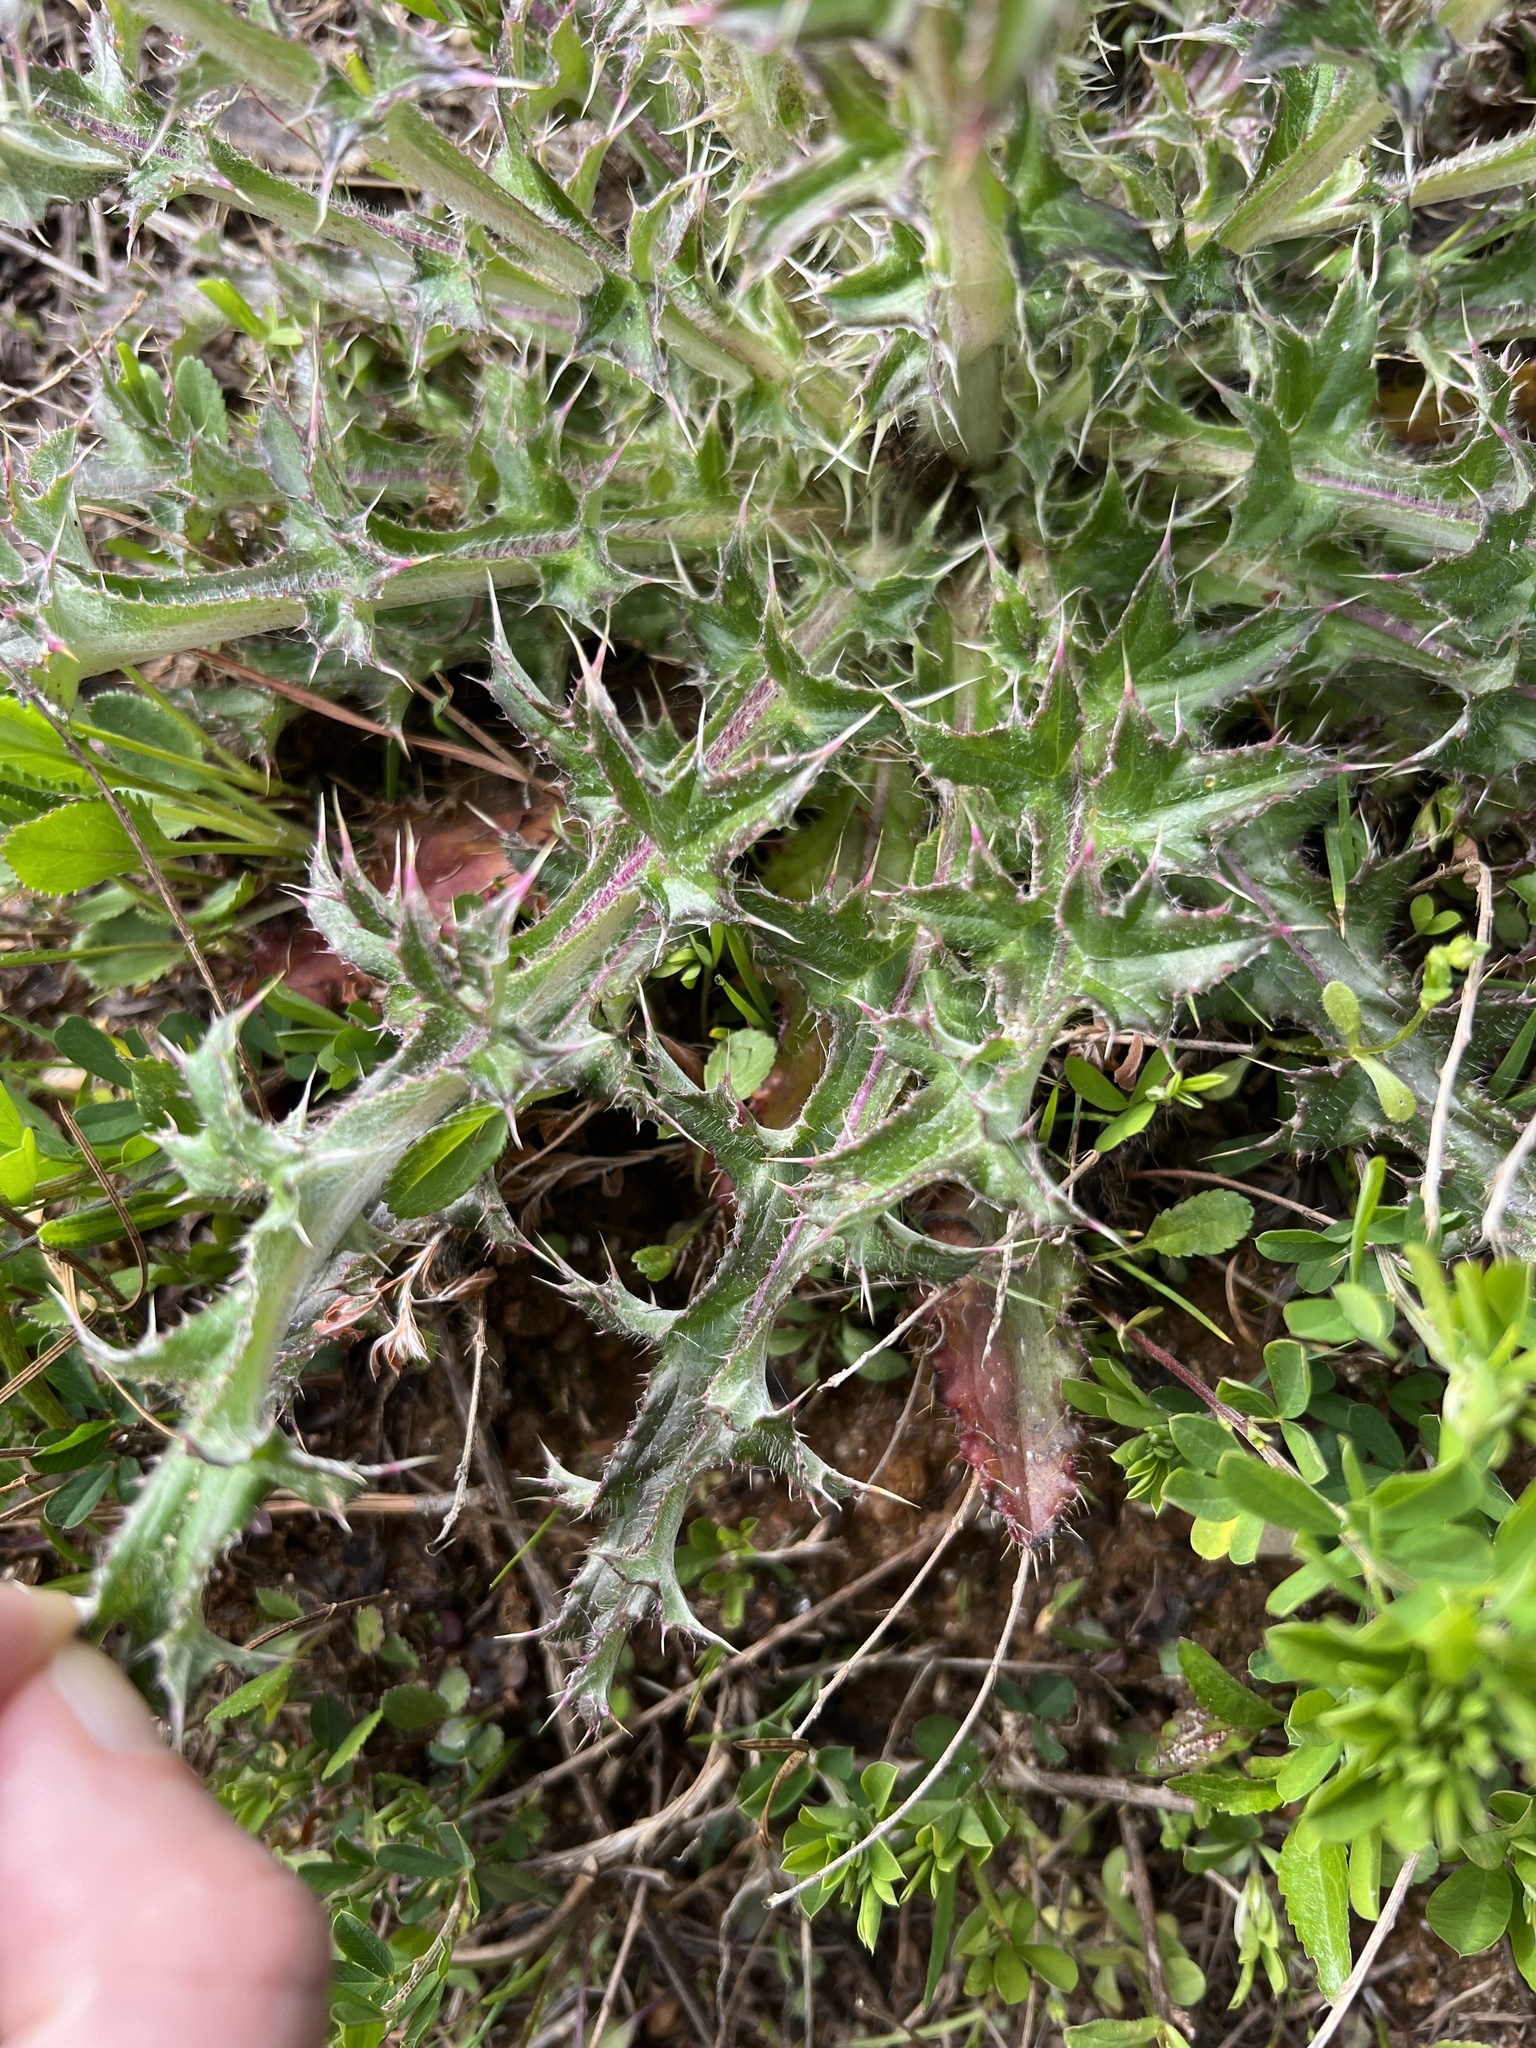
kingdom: Plantae
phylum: Tracheophyta
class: Magnoliopsida
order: Asterales
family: Asteraceae
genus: Cirsium
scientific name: Cirsium horridulum
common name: Bristly thistle
